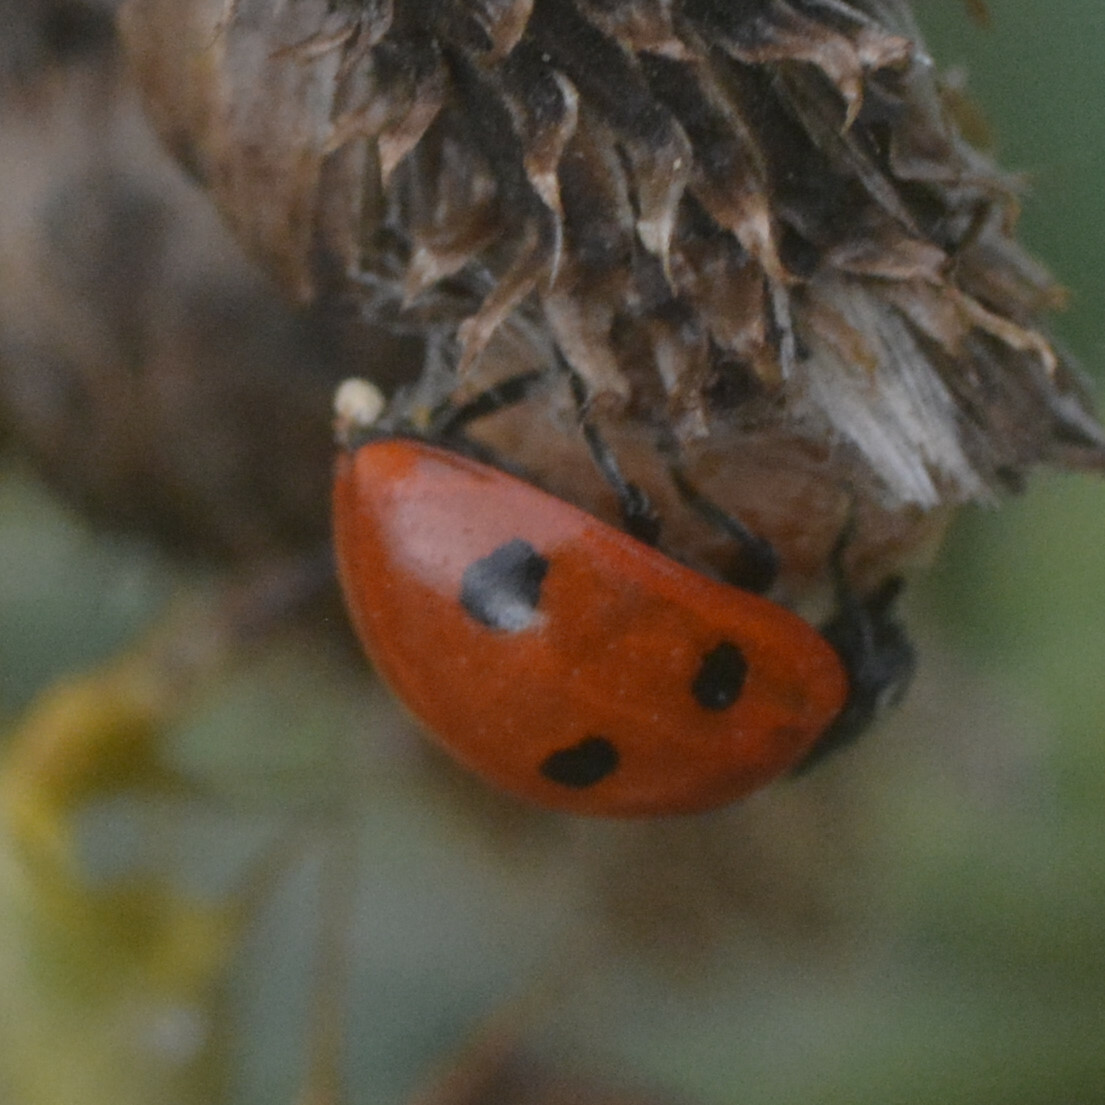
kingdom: Animalia
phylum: Arthropoda
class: Insecta
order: Coleoptera
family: Coccinellidae
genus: Coccinella
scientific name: Coccinella septempunctata
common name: Sevenspotted lady beetle
